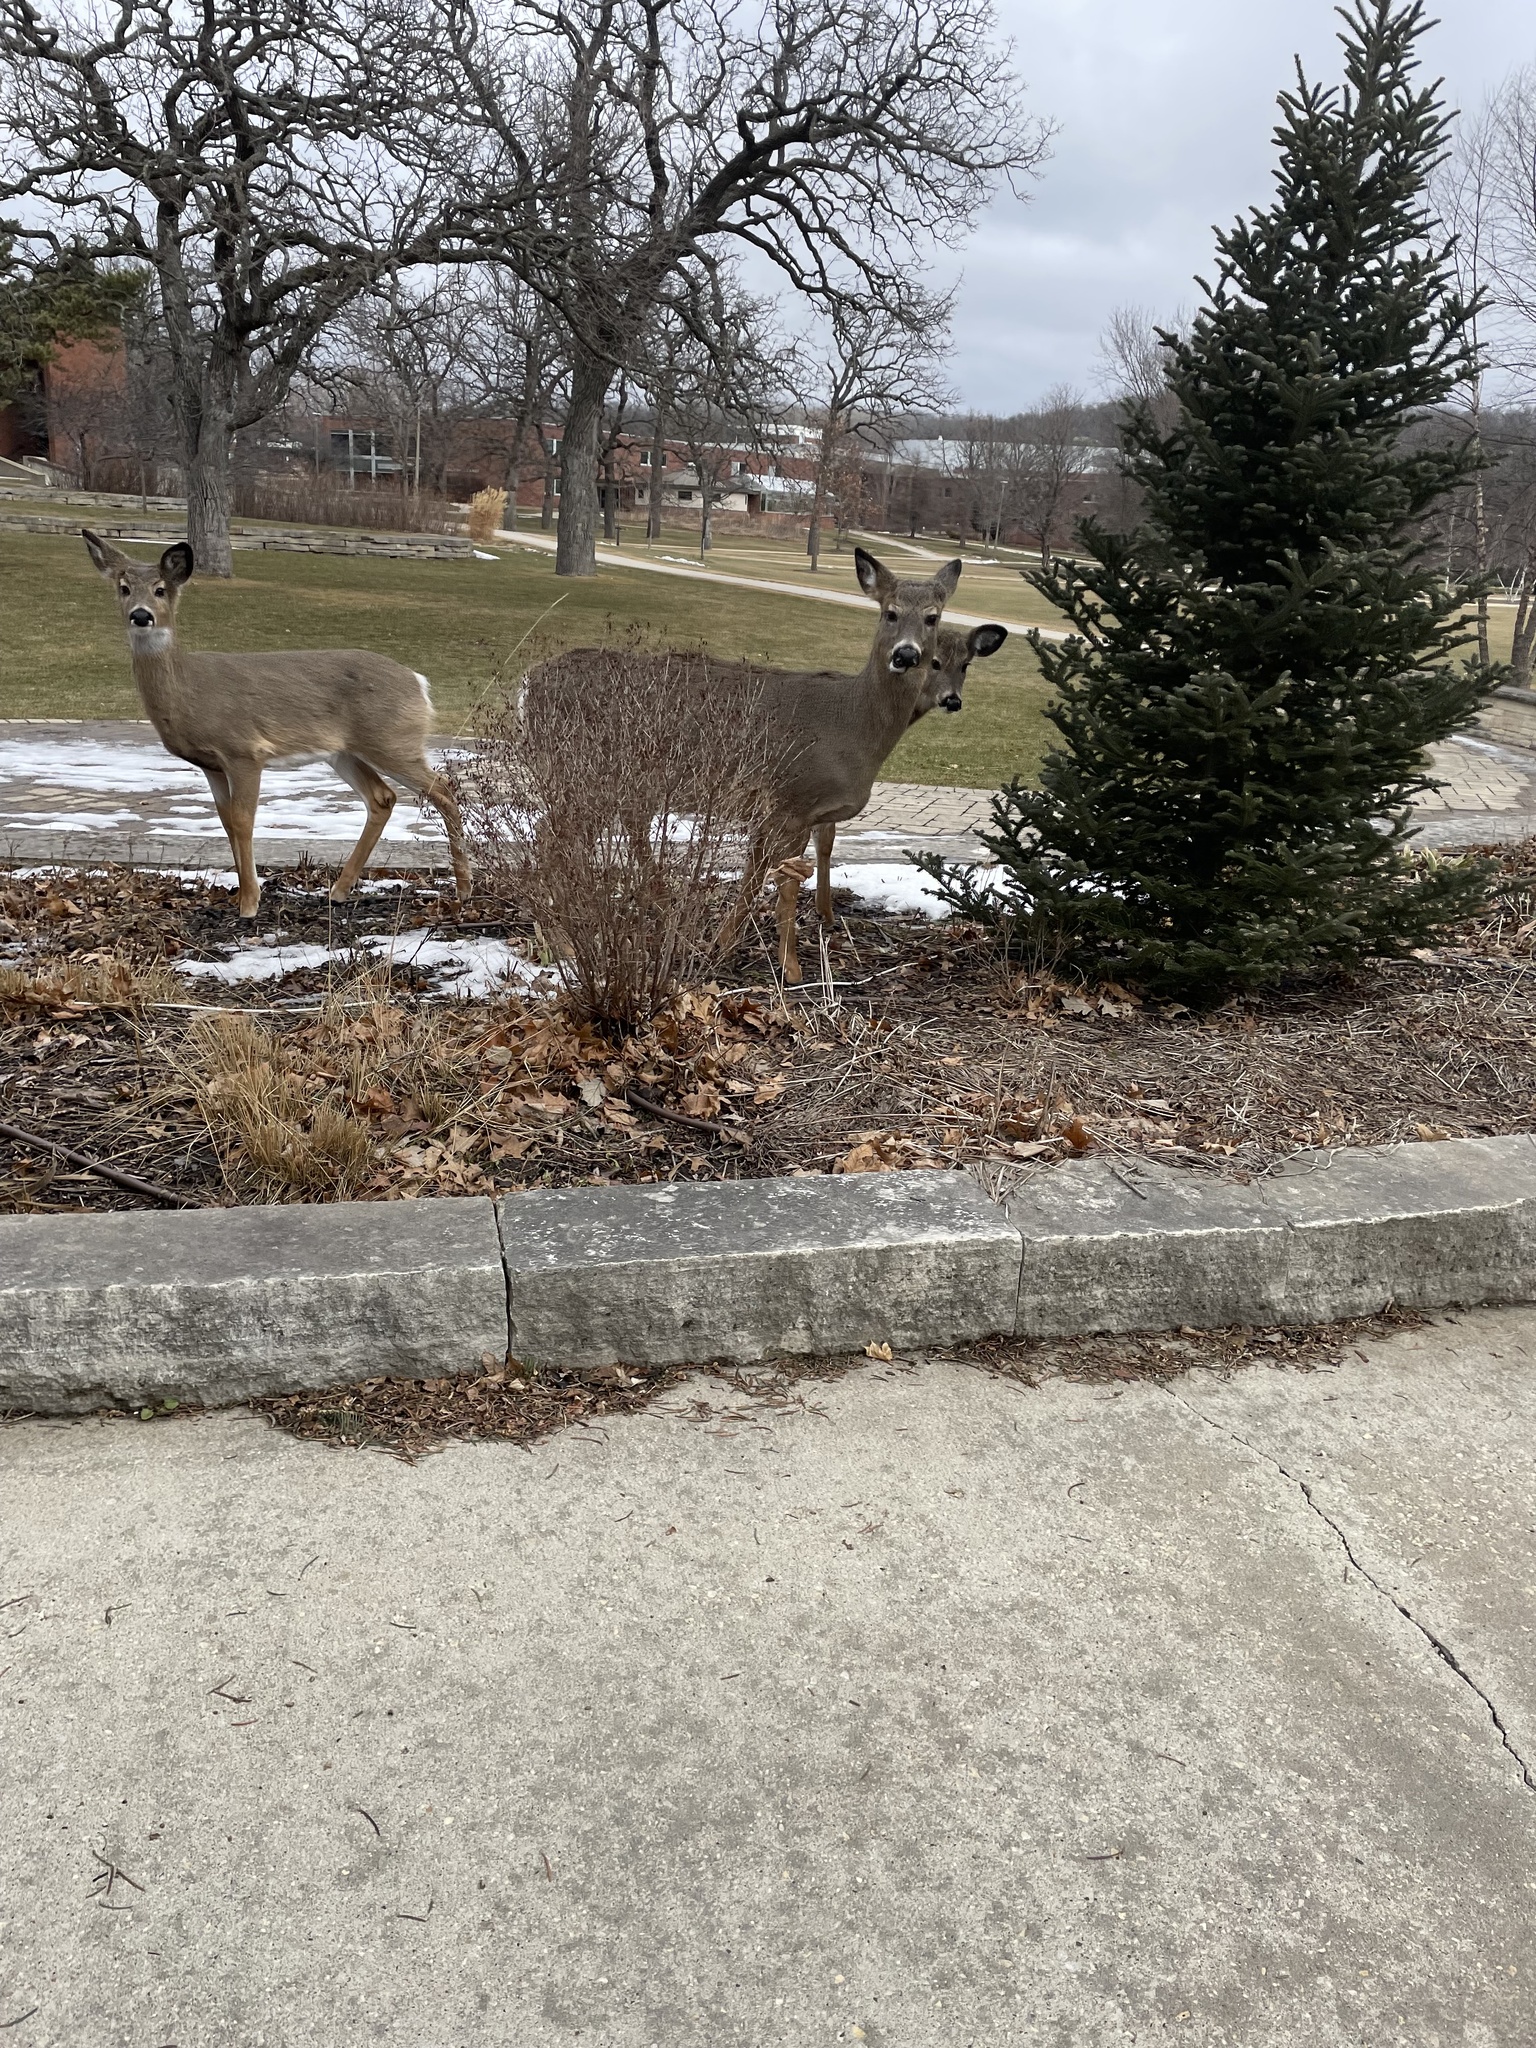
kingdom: Animalia
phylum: Chordata
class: Mammalia
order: Artiodactyla
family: Cervidae
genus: Odocoileus
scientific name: Odocoileus virginianus
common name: White-tailed deer
